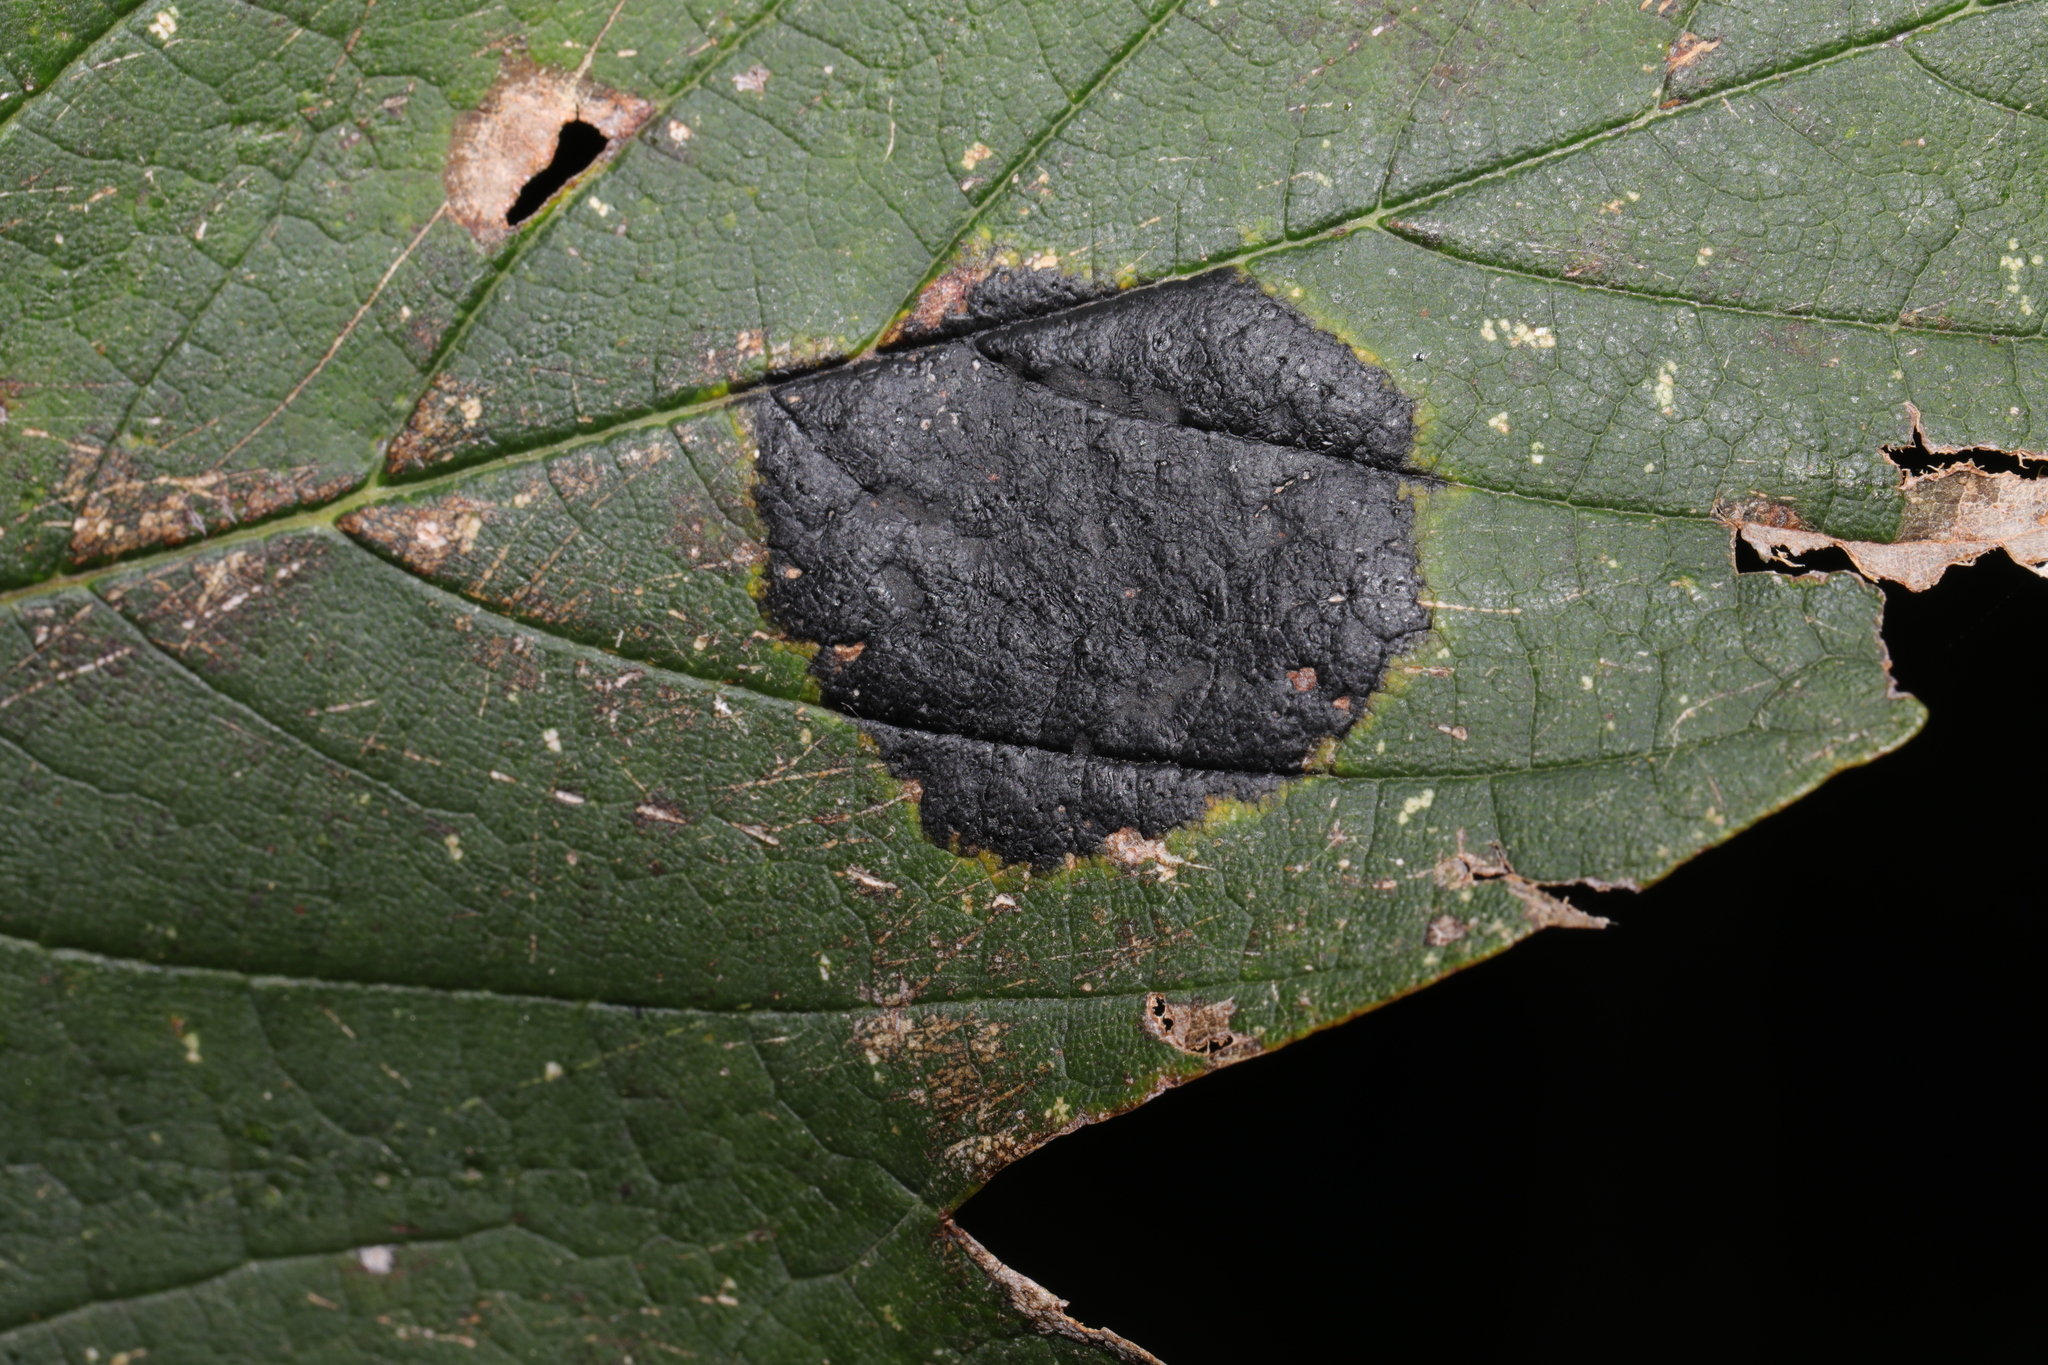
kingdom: Fungi
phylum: Ascomycota
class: Leotiomycetes
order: Rhytismatales
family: Rhytismataceae
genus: Rhytisma
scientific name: Rhytisma acerinum
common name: European tar spot
